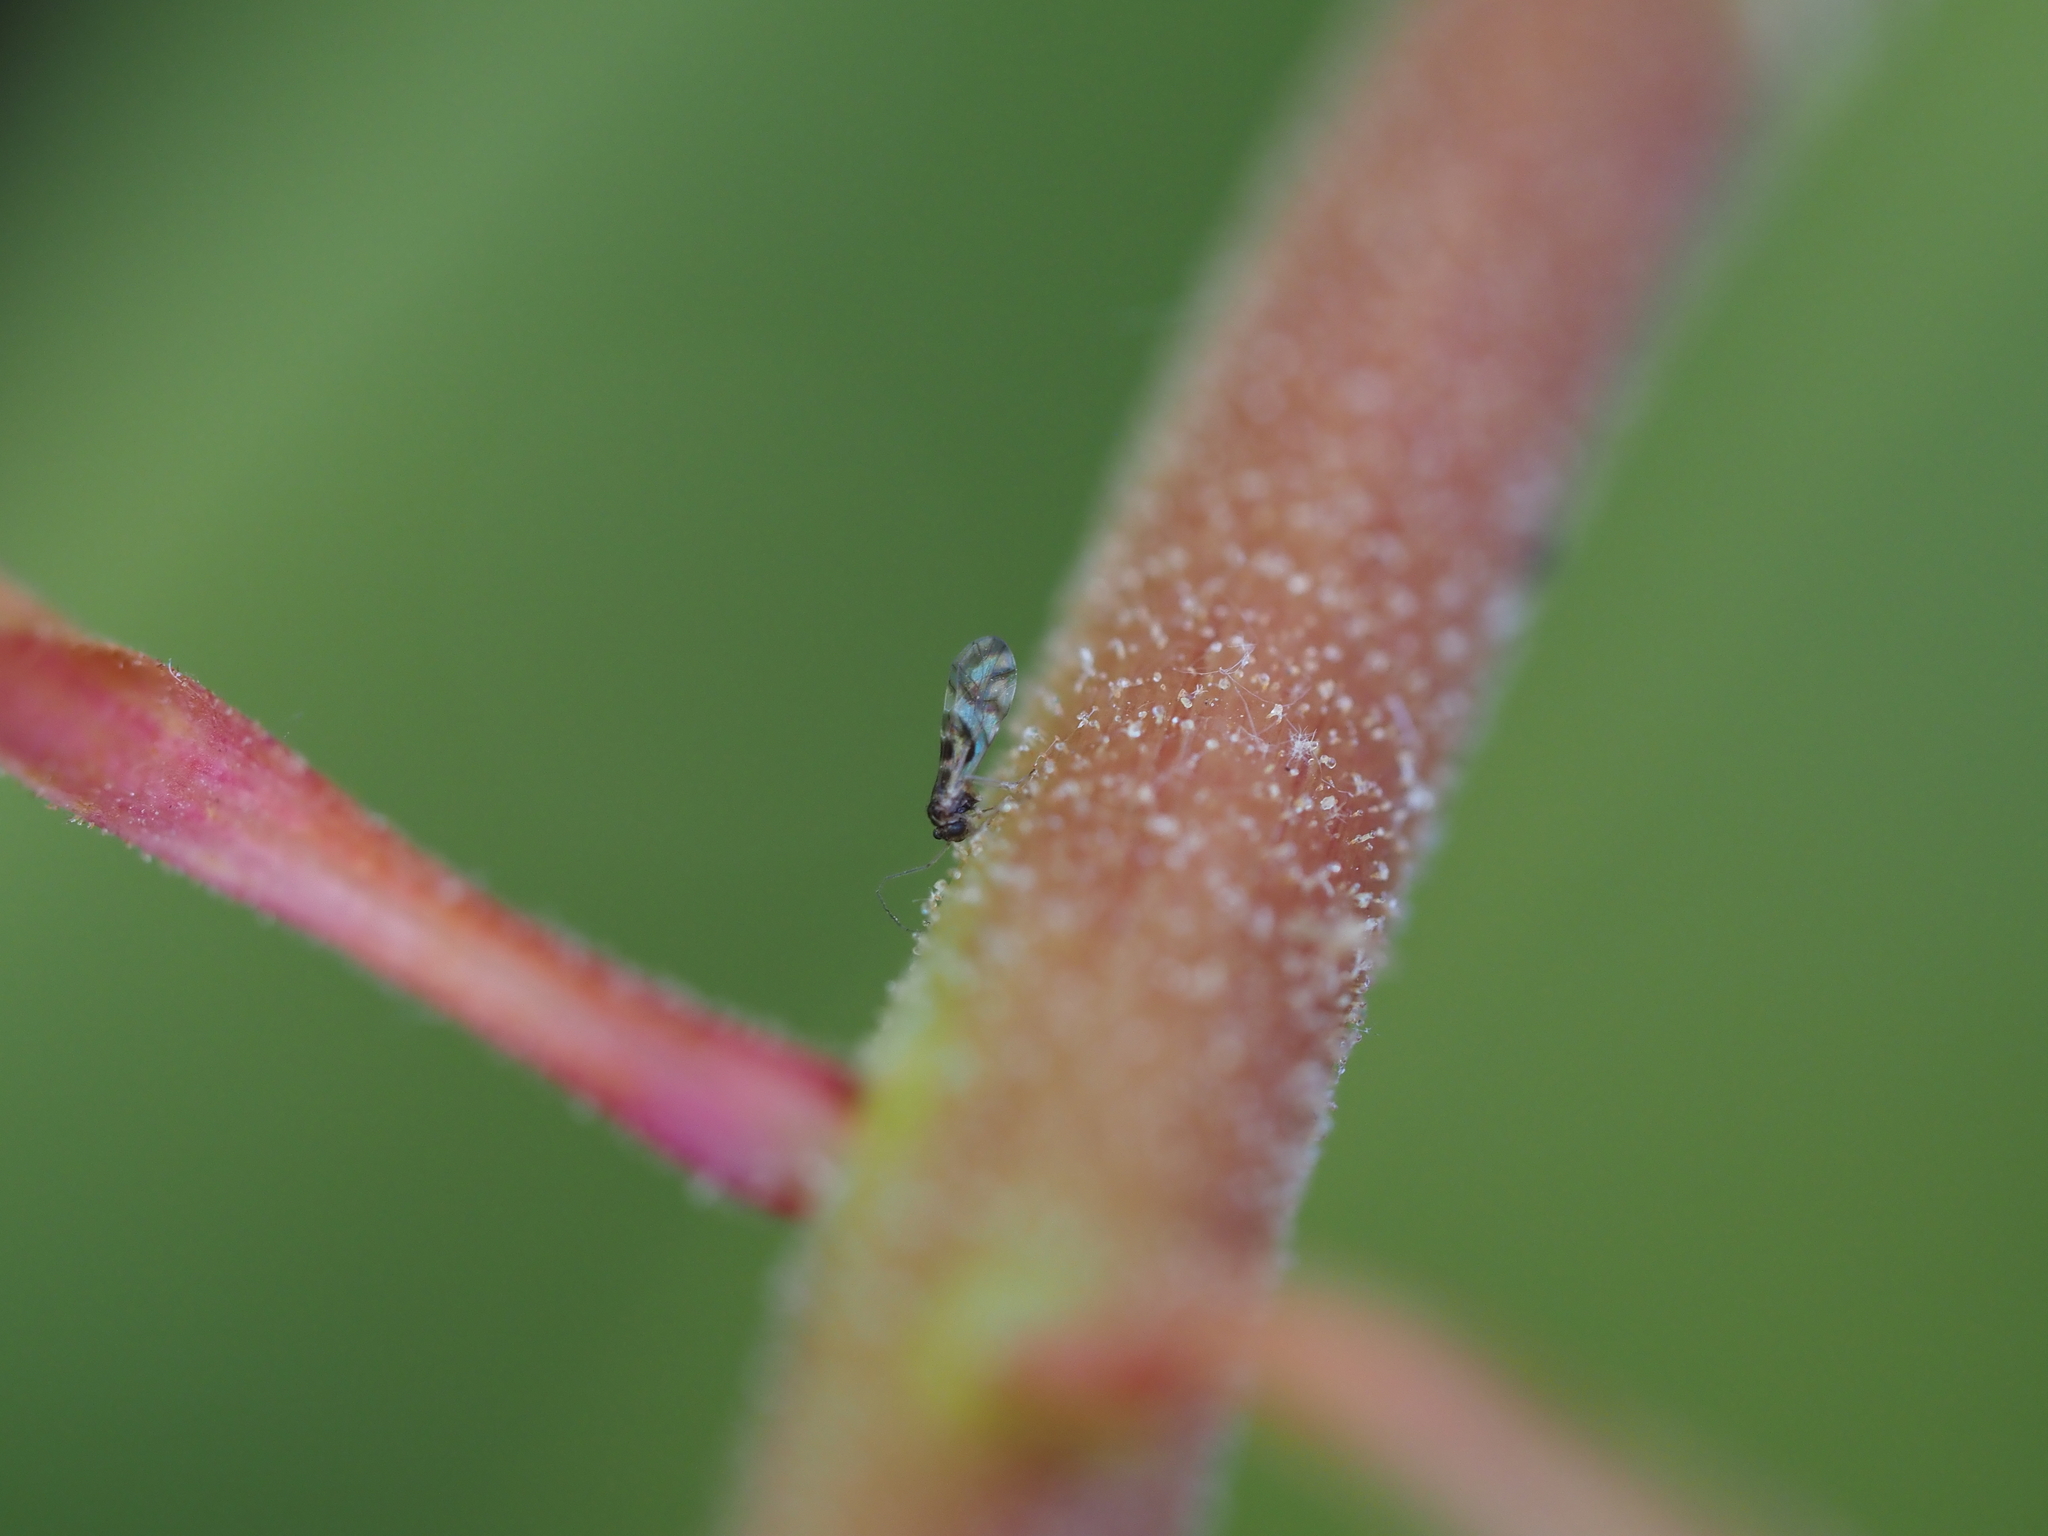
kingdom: Animalia
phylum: Arthropoda
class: Insecta
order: Psocodea
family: Stenopsocidae
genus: Graphopsocus
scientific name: Graphopsocus cruciatus
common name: Lizard bark louse
